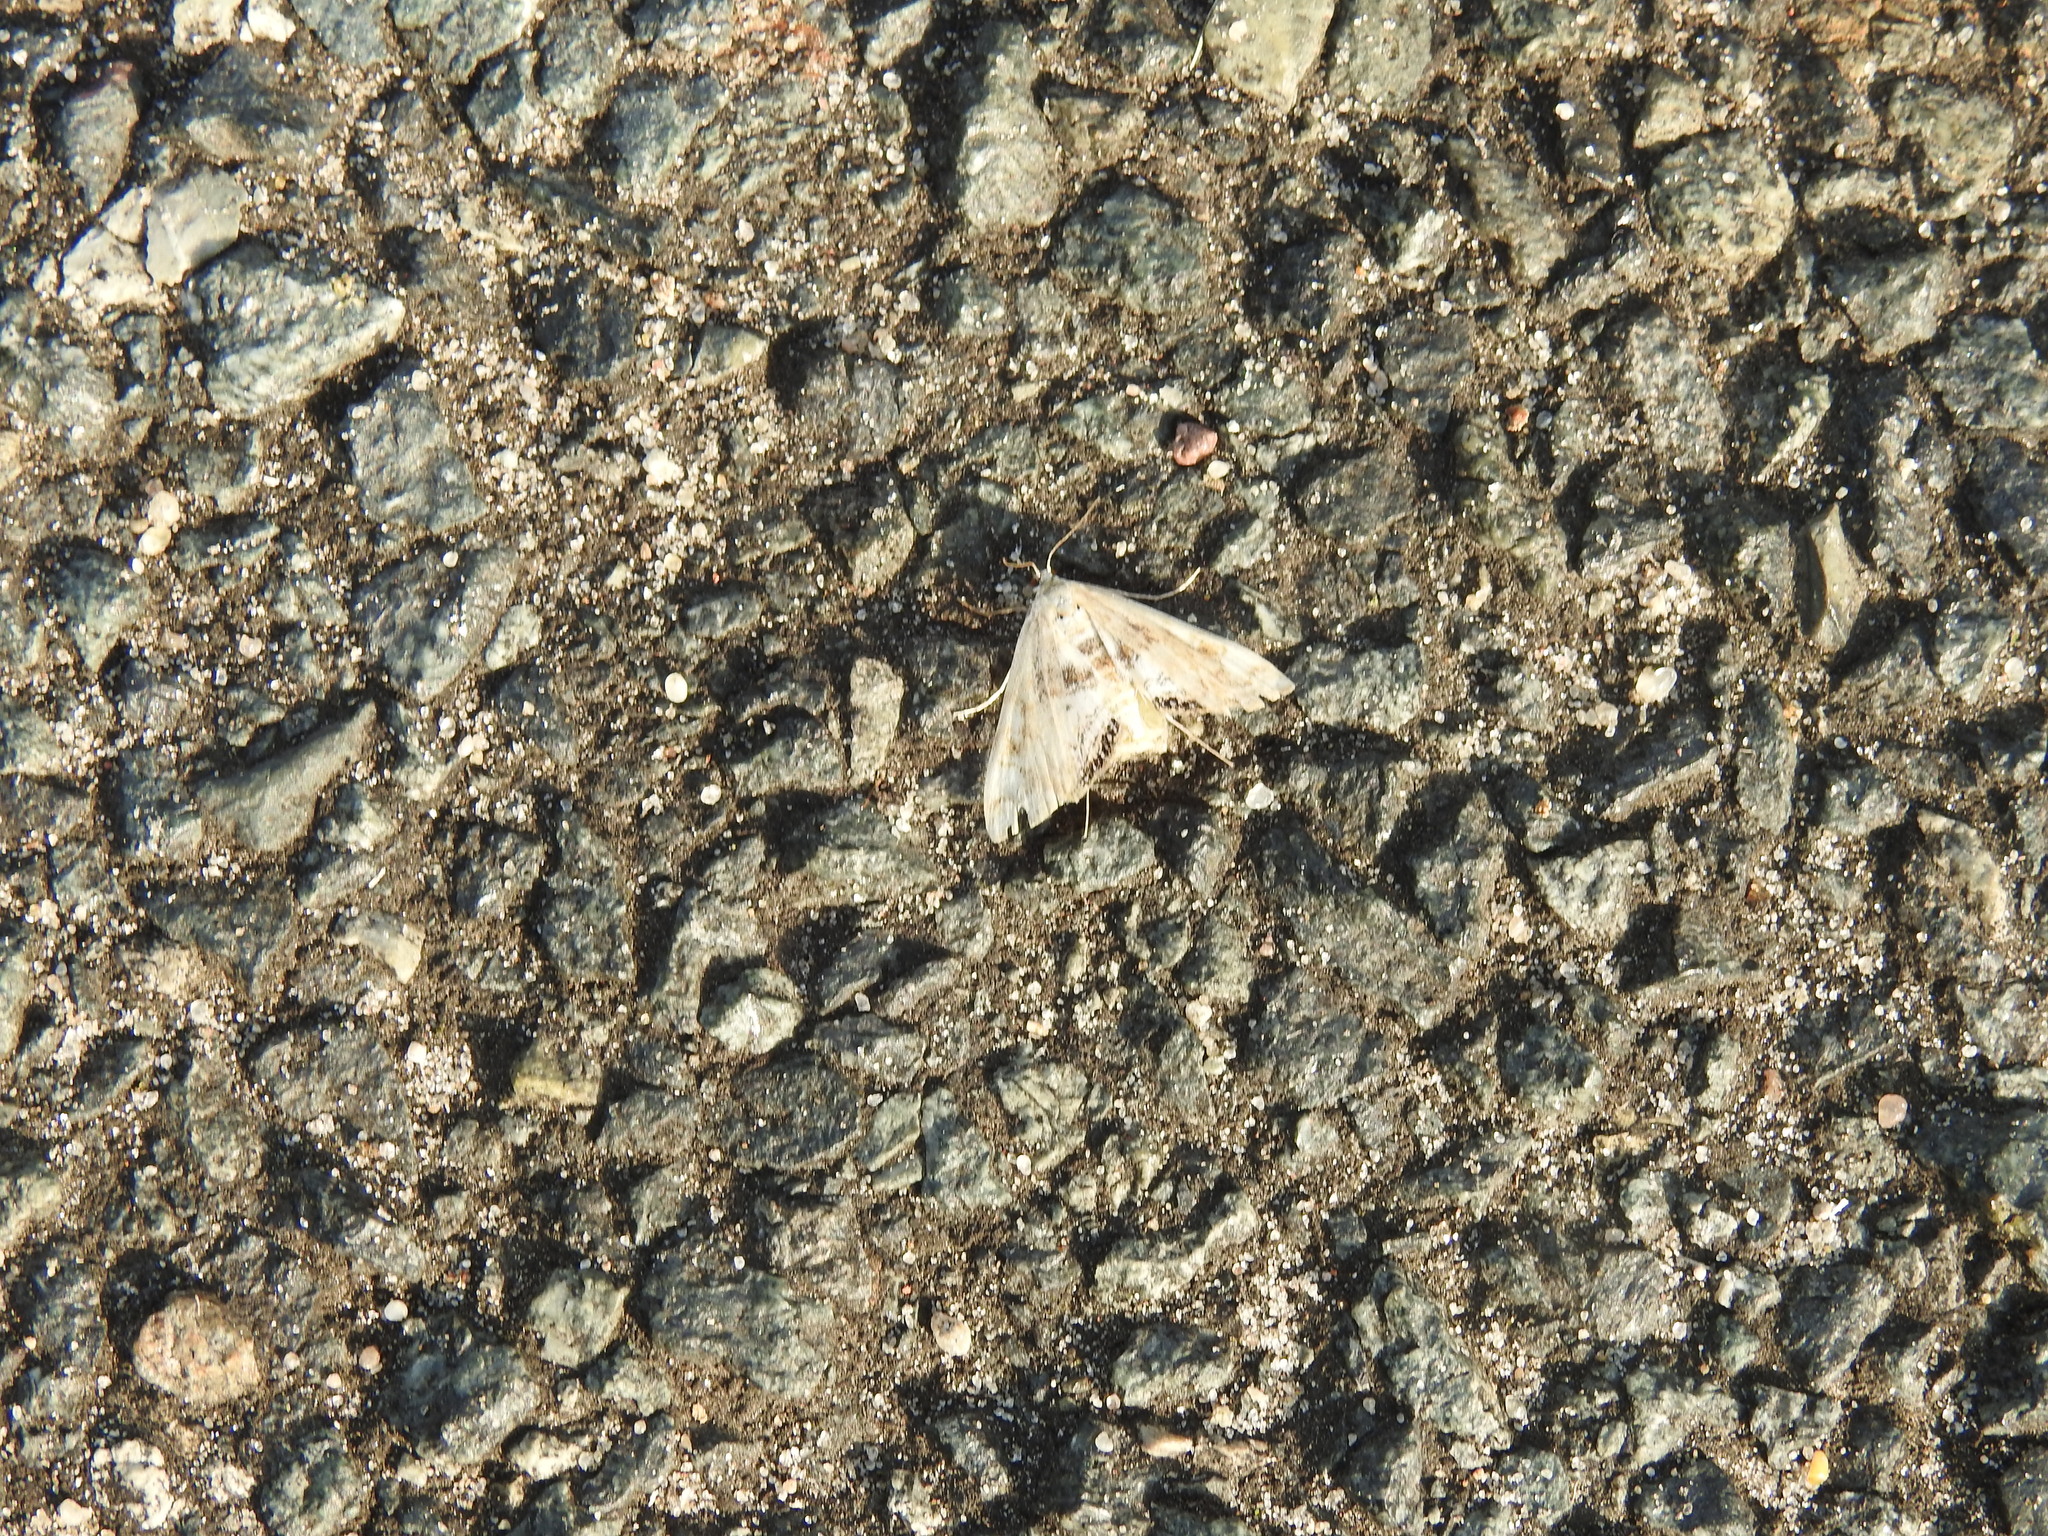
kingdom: Animalia
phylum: Arthropoda
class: Insecta
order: Lepidoptera
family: Crambidae
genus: Cataclysta
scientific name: Cataclysta lemnata
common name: Small china-mark
